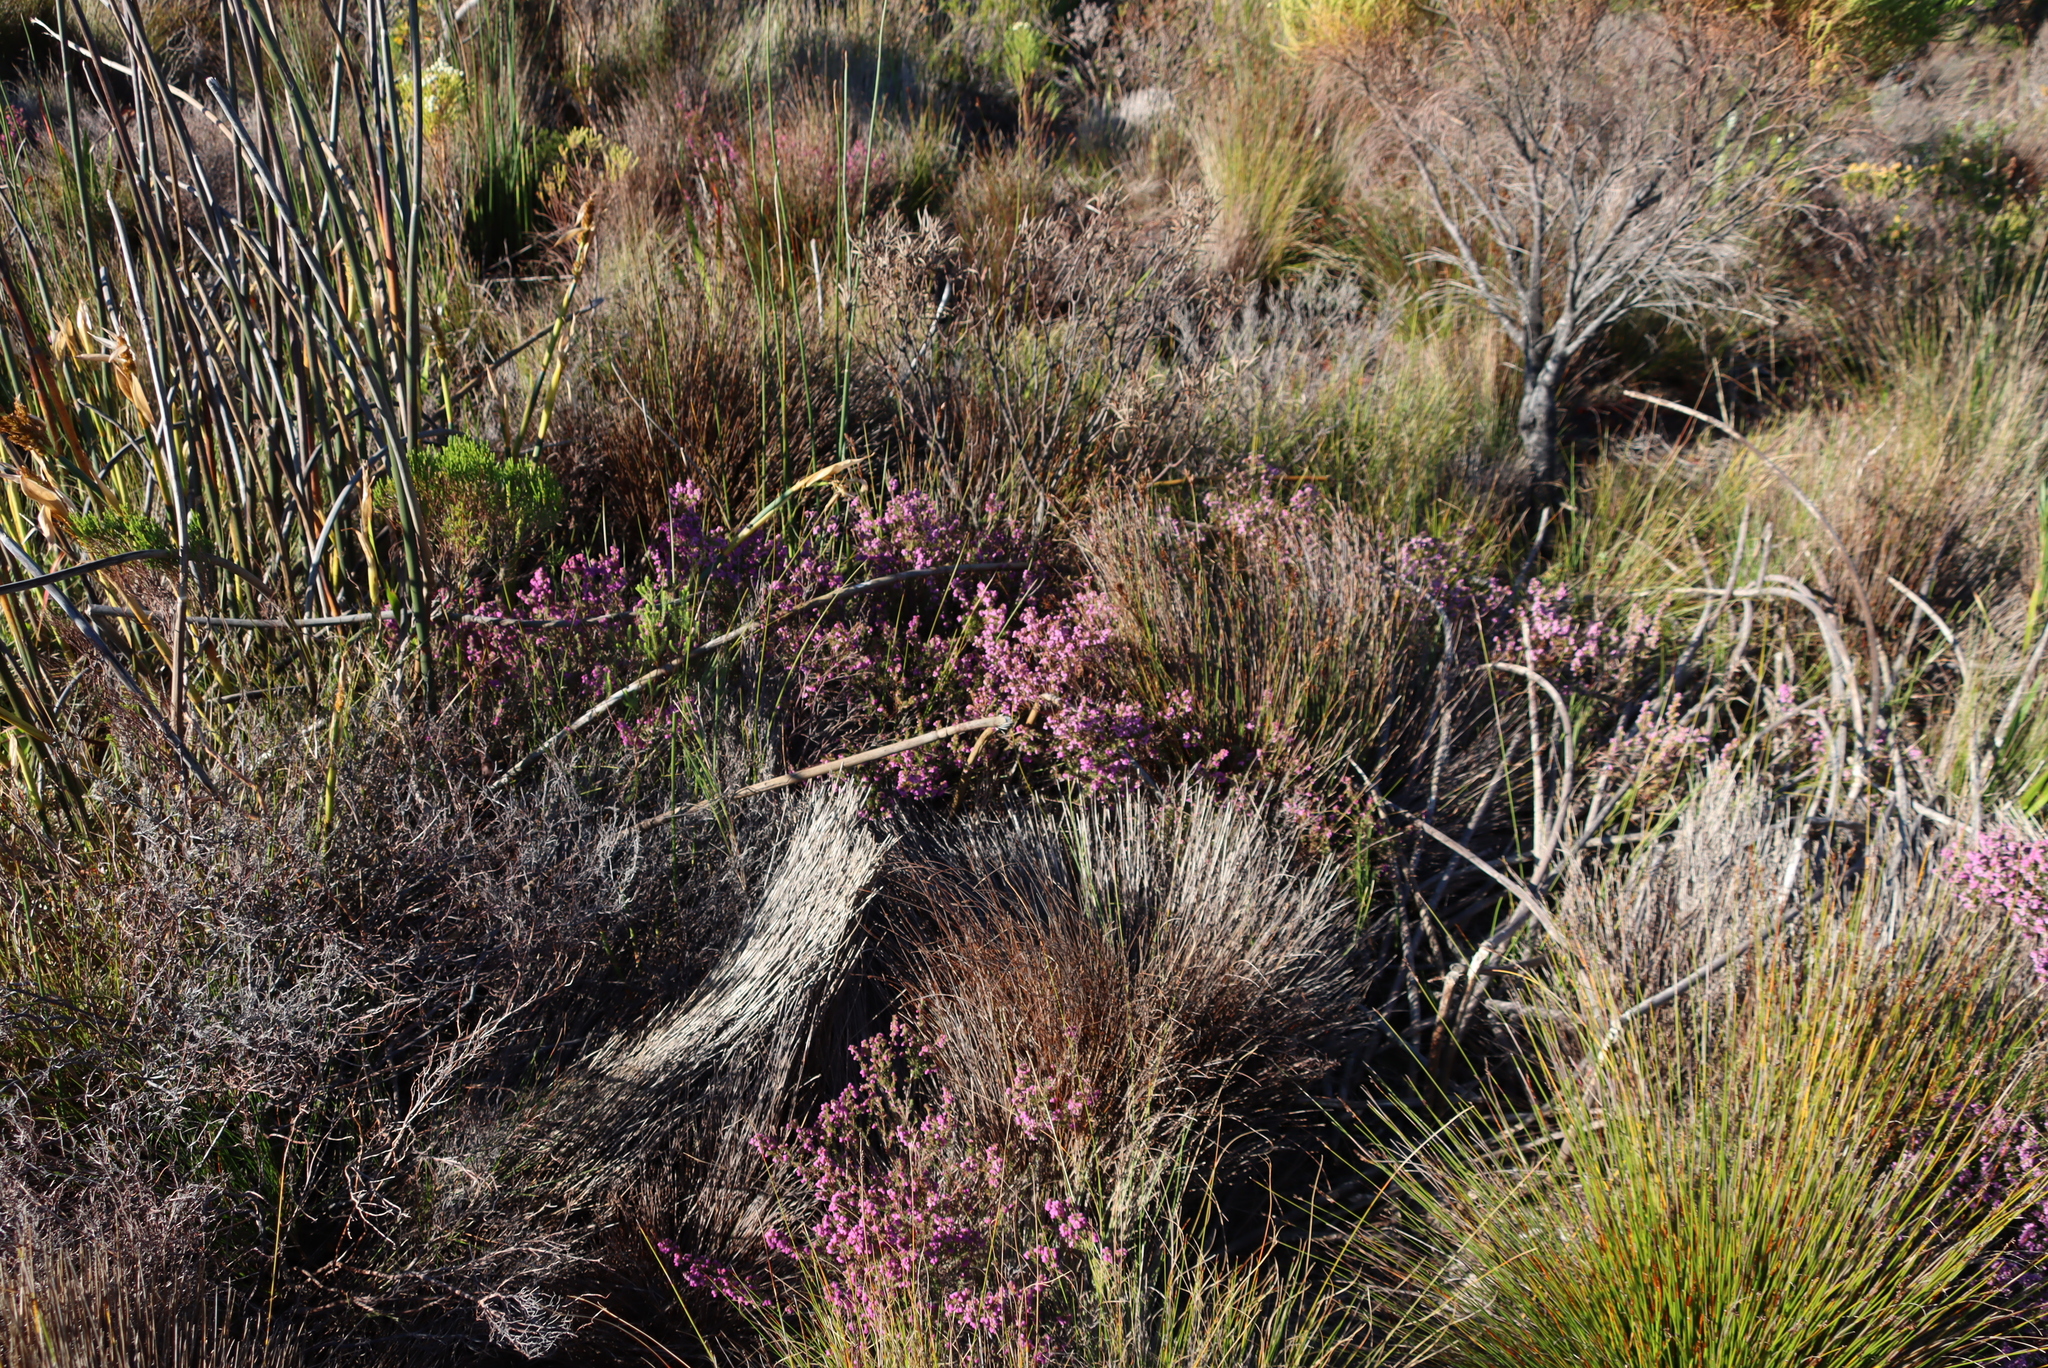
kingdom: Plantae
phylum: Tracheophyta
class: Magnoliopsida
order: Ericales
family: Ericaceae
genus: Erica
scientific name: Erica mollis
